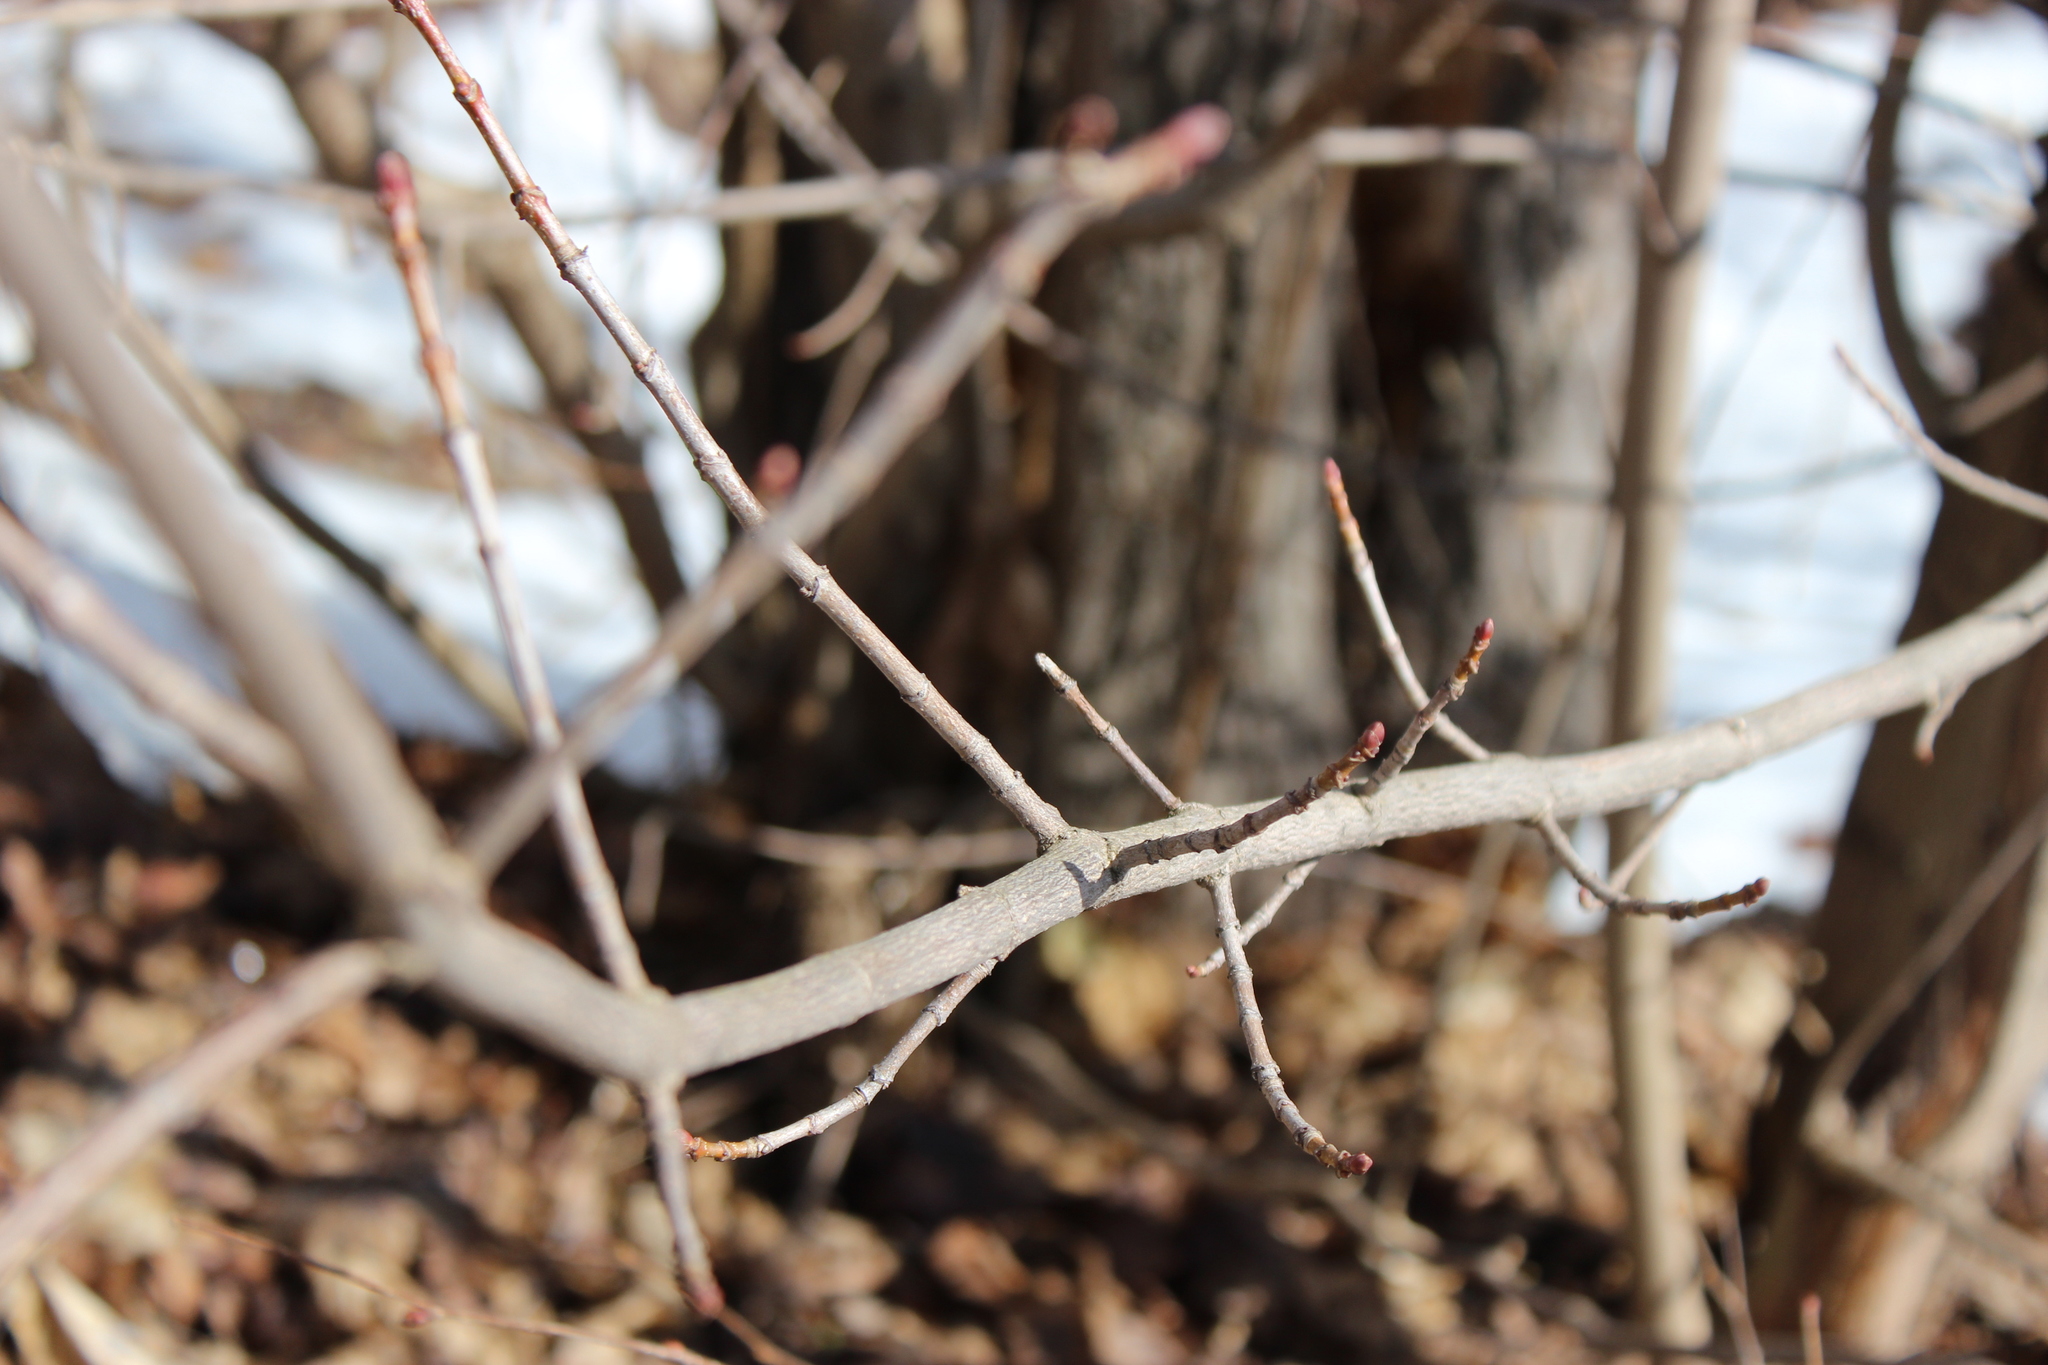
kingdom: Plantae
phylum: Tracheophyta
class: Magnoliopsida
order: Sapindales
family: Sapindaceae
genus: Acer
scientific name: Acer platanoides
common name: Norway maple
